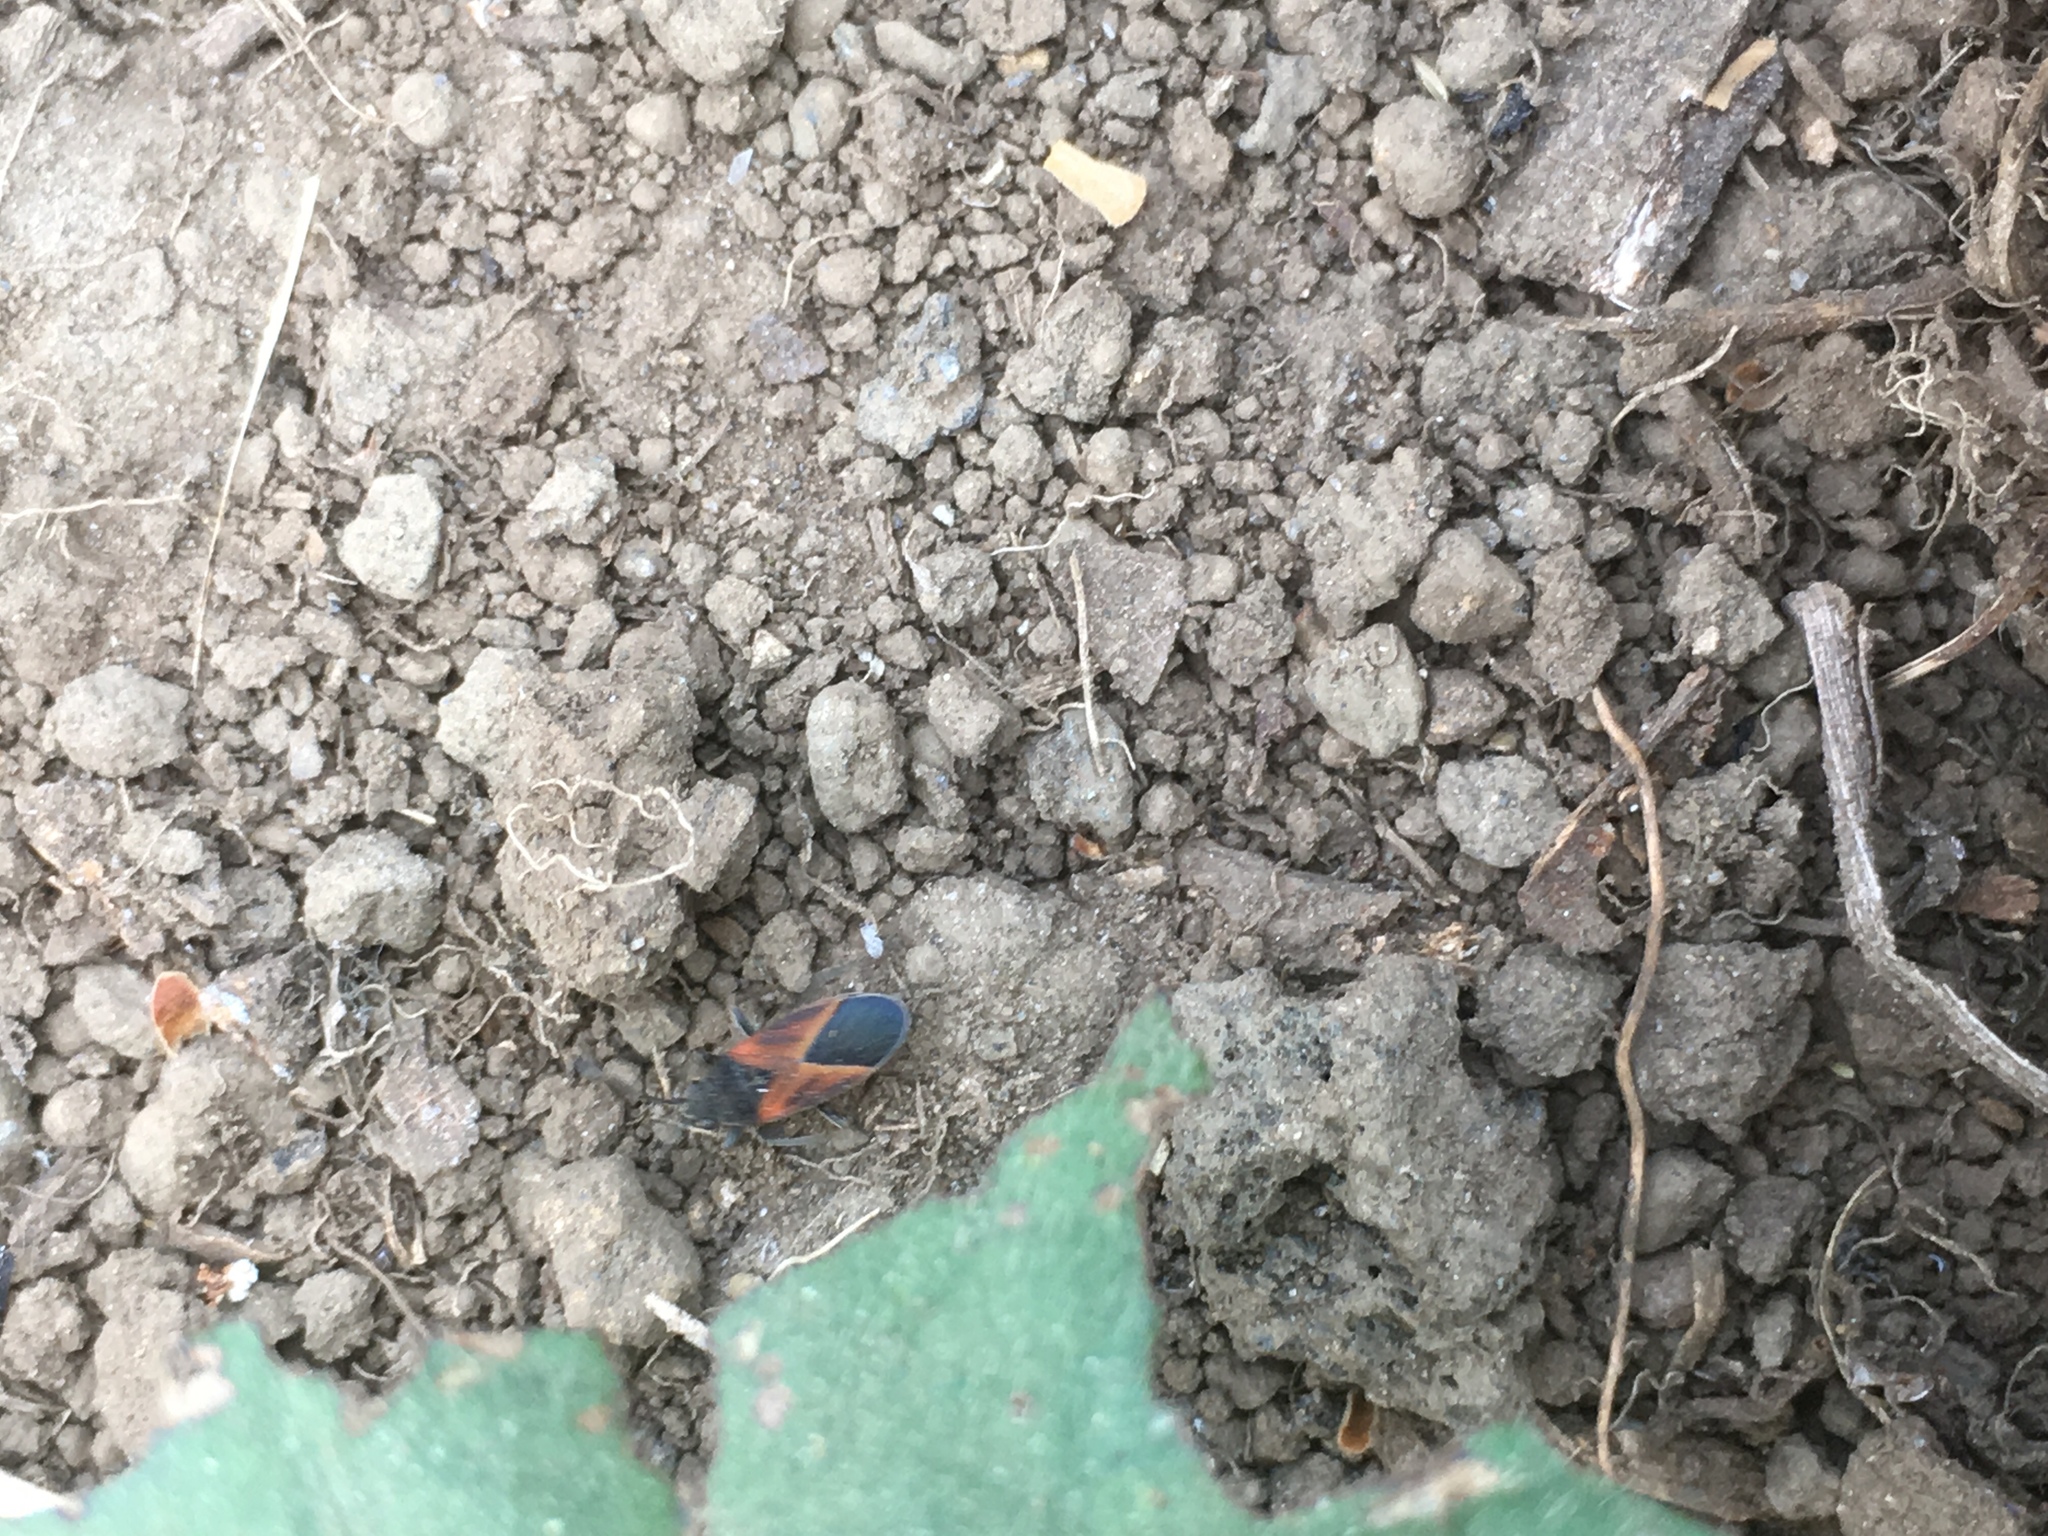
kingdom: Animalia
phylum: Arthropoda
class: Insecta
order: Hemiptera
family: Lygaeidae
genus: Melanopleurus
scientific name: Melanopleurus fuscosus
